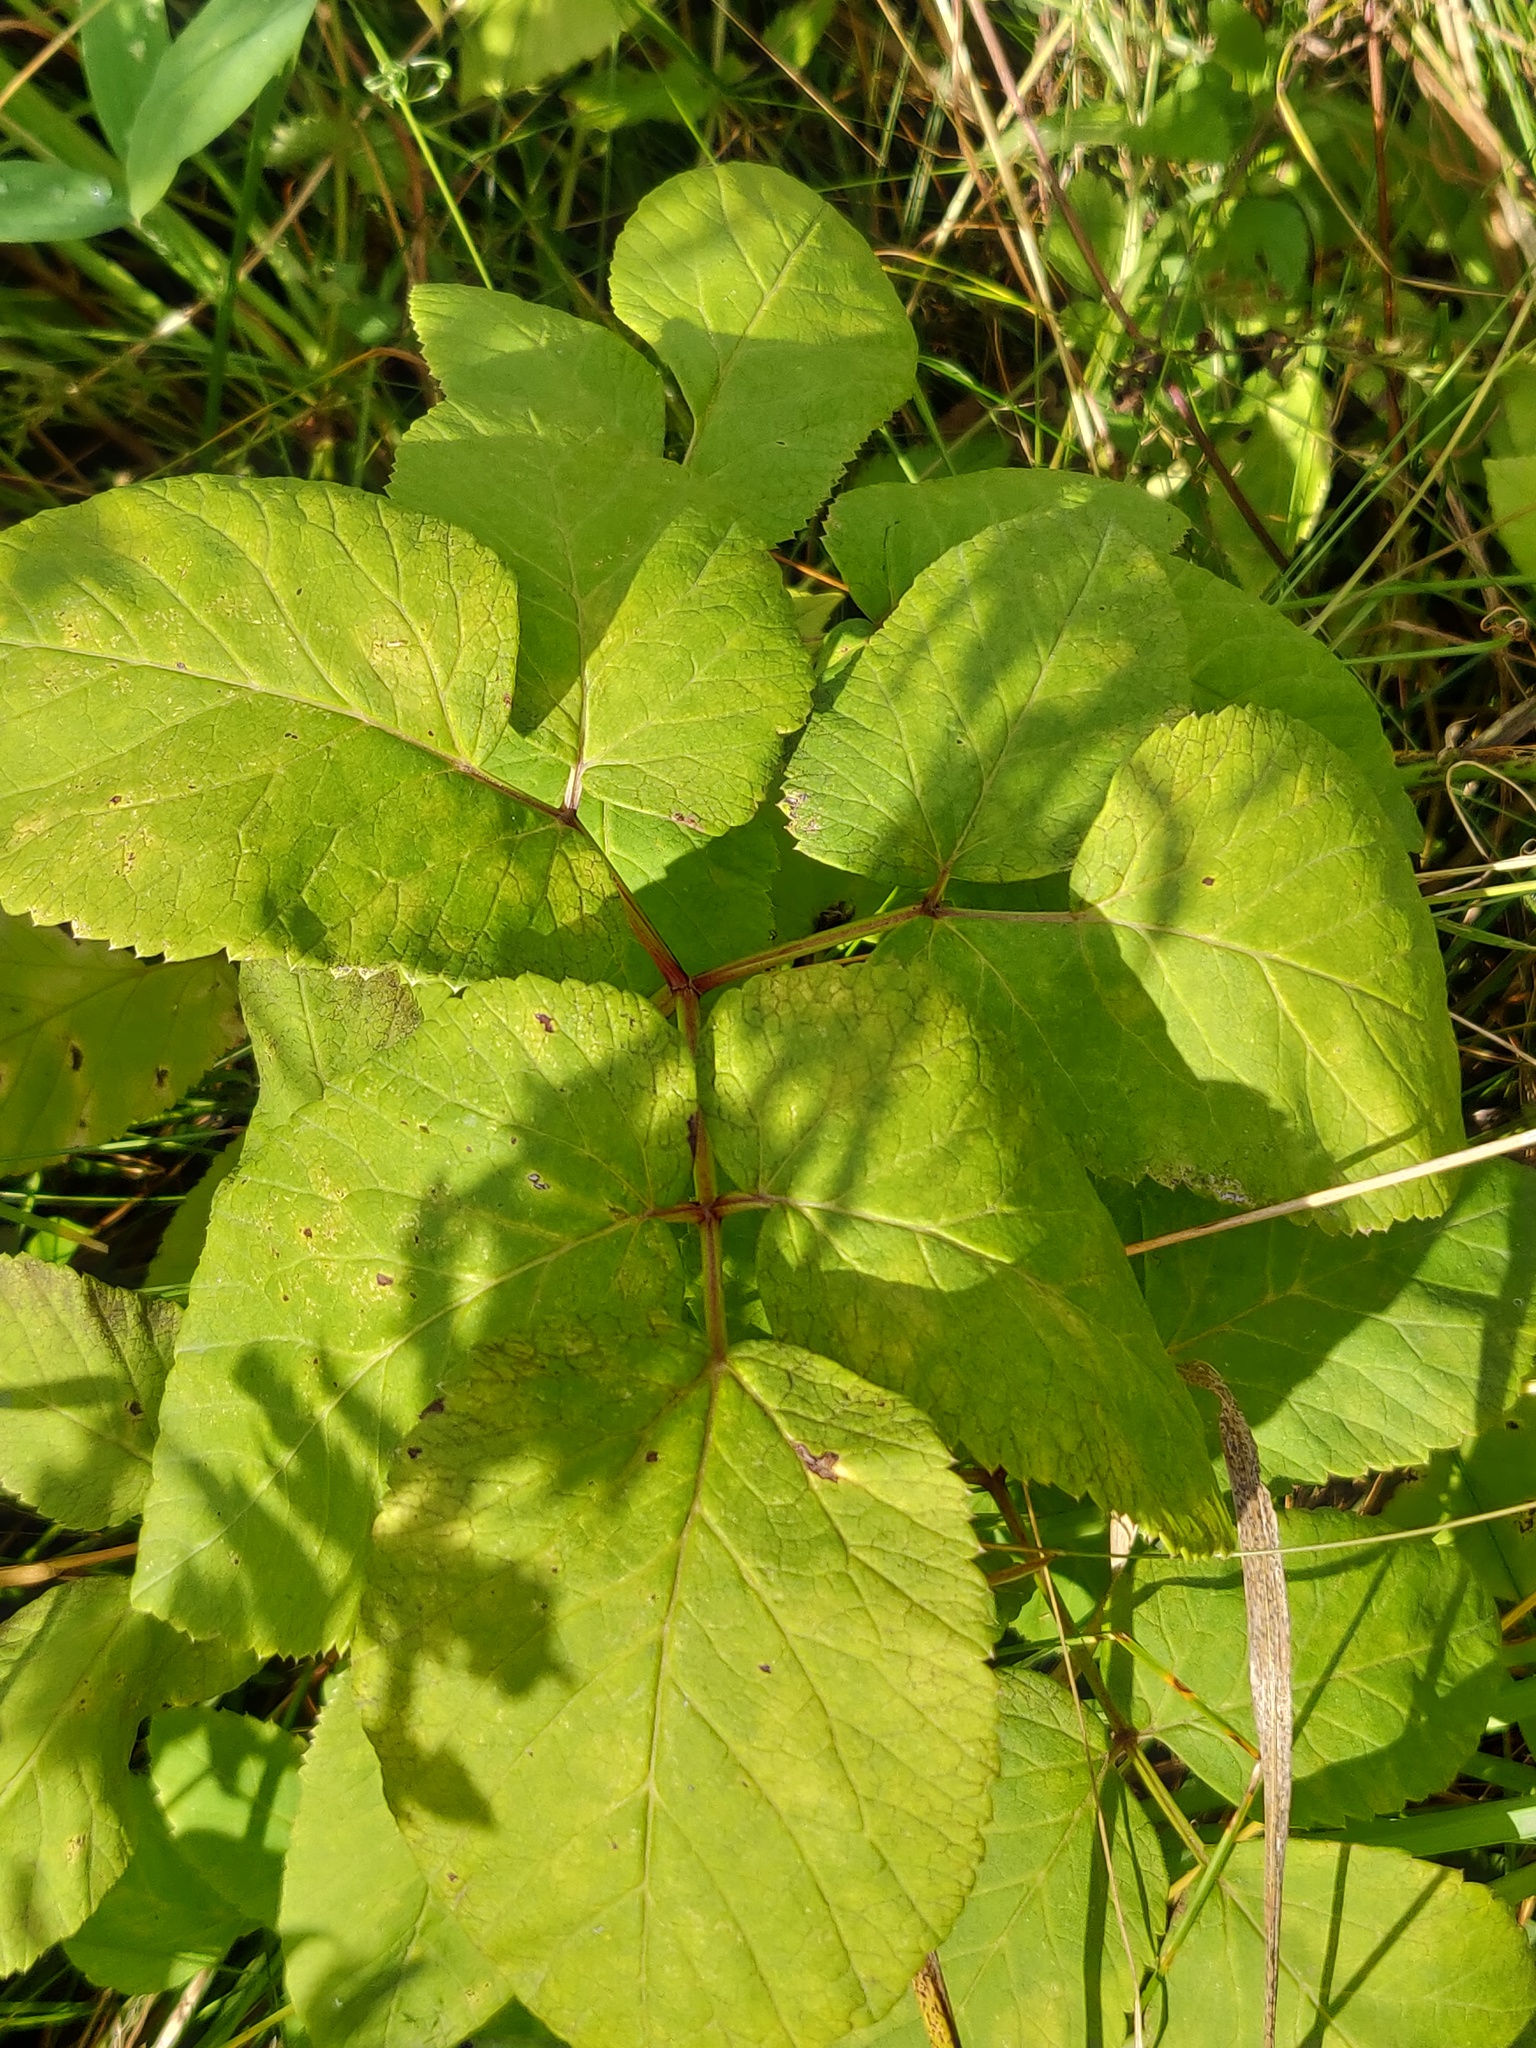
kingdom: Plantae
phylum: Tracheophyta
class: Magnoliopsida
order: Apiales
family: Apiaceae
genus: Chaerophyllum
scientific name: Chaerophyllum aromaticum
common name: Broadleaf chervil
